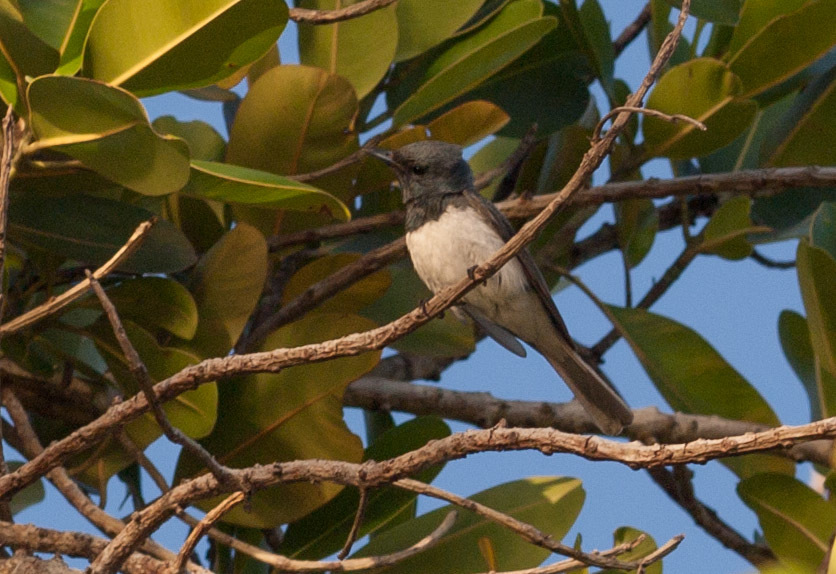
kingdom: Animalia
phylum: Chordata
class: Aves
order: Passeriformes
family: Monarchidae
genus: Myiagra
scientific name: Myiagra rubecula
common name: Leaden flycatcher
